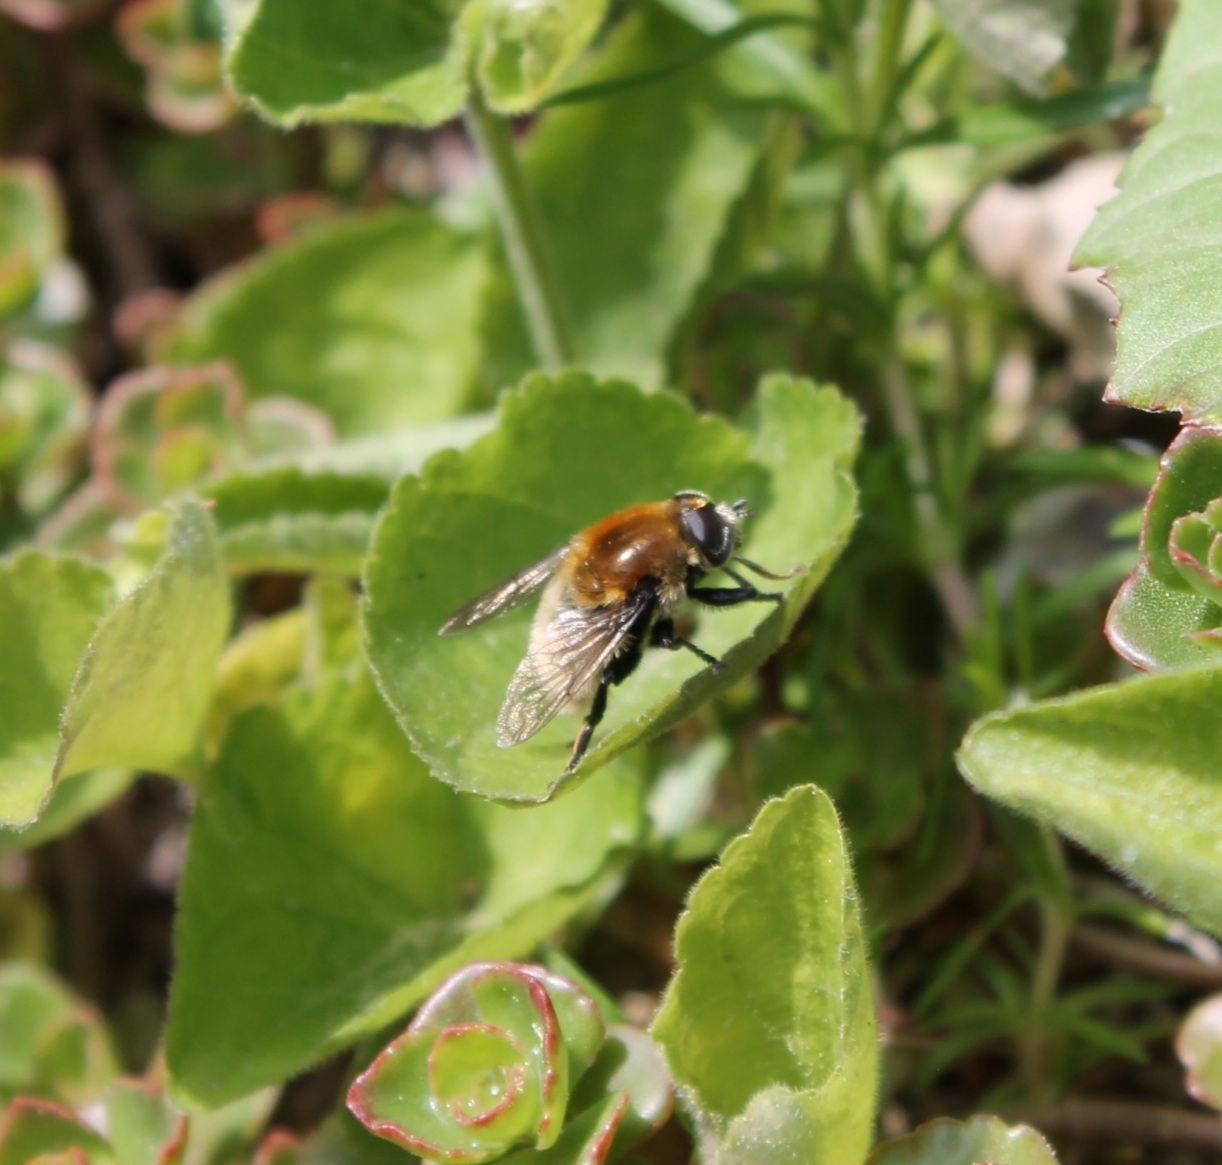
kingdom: Animalia
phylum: Arthropoda
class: Insecta
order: Diptera
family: Syrphidae
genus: Merodon
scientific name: Merodon equestris
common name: Greater bulb-fly
